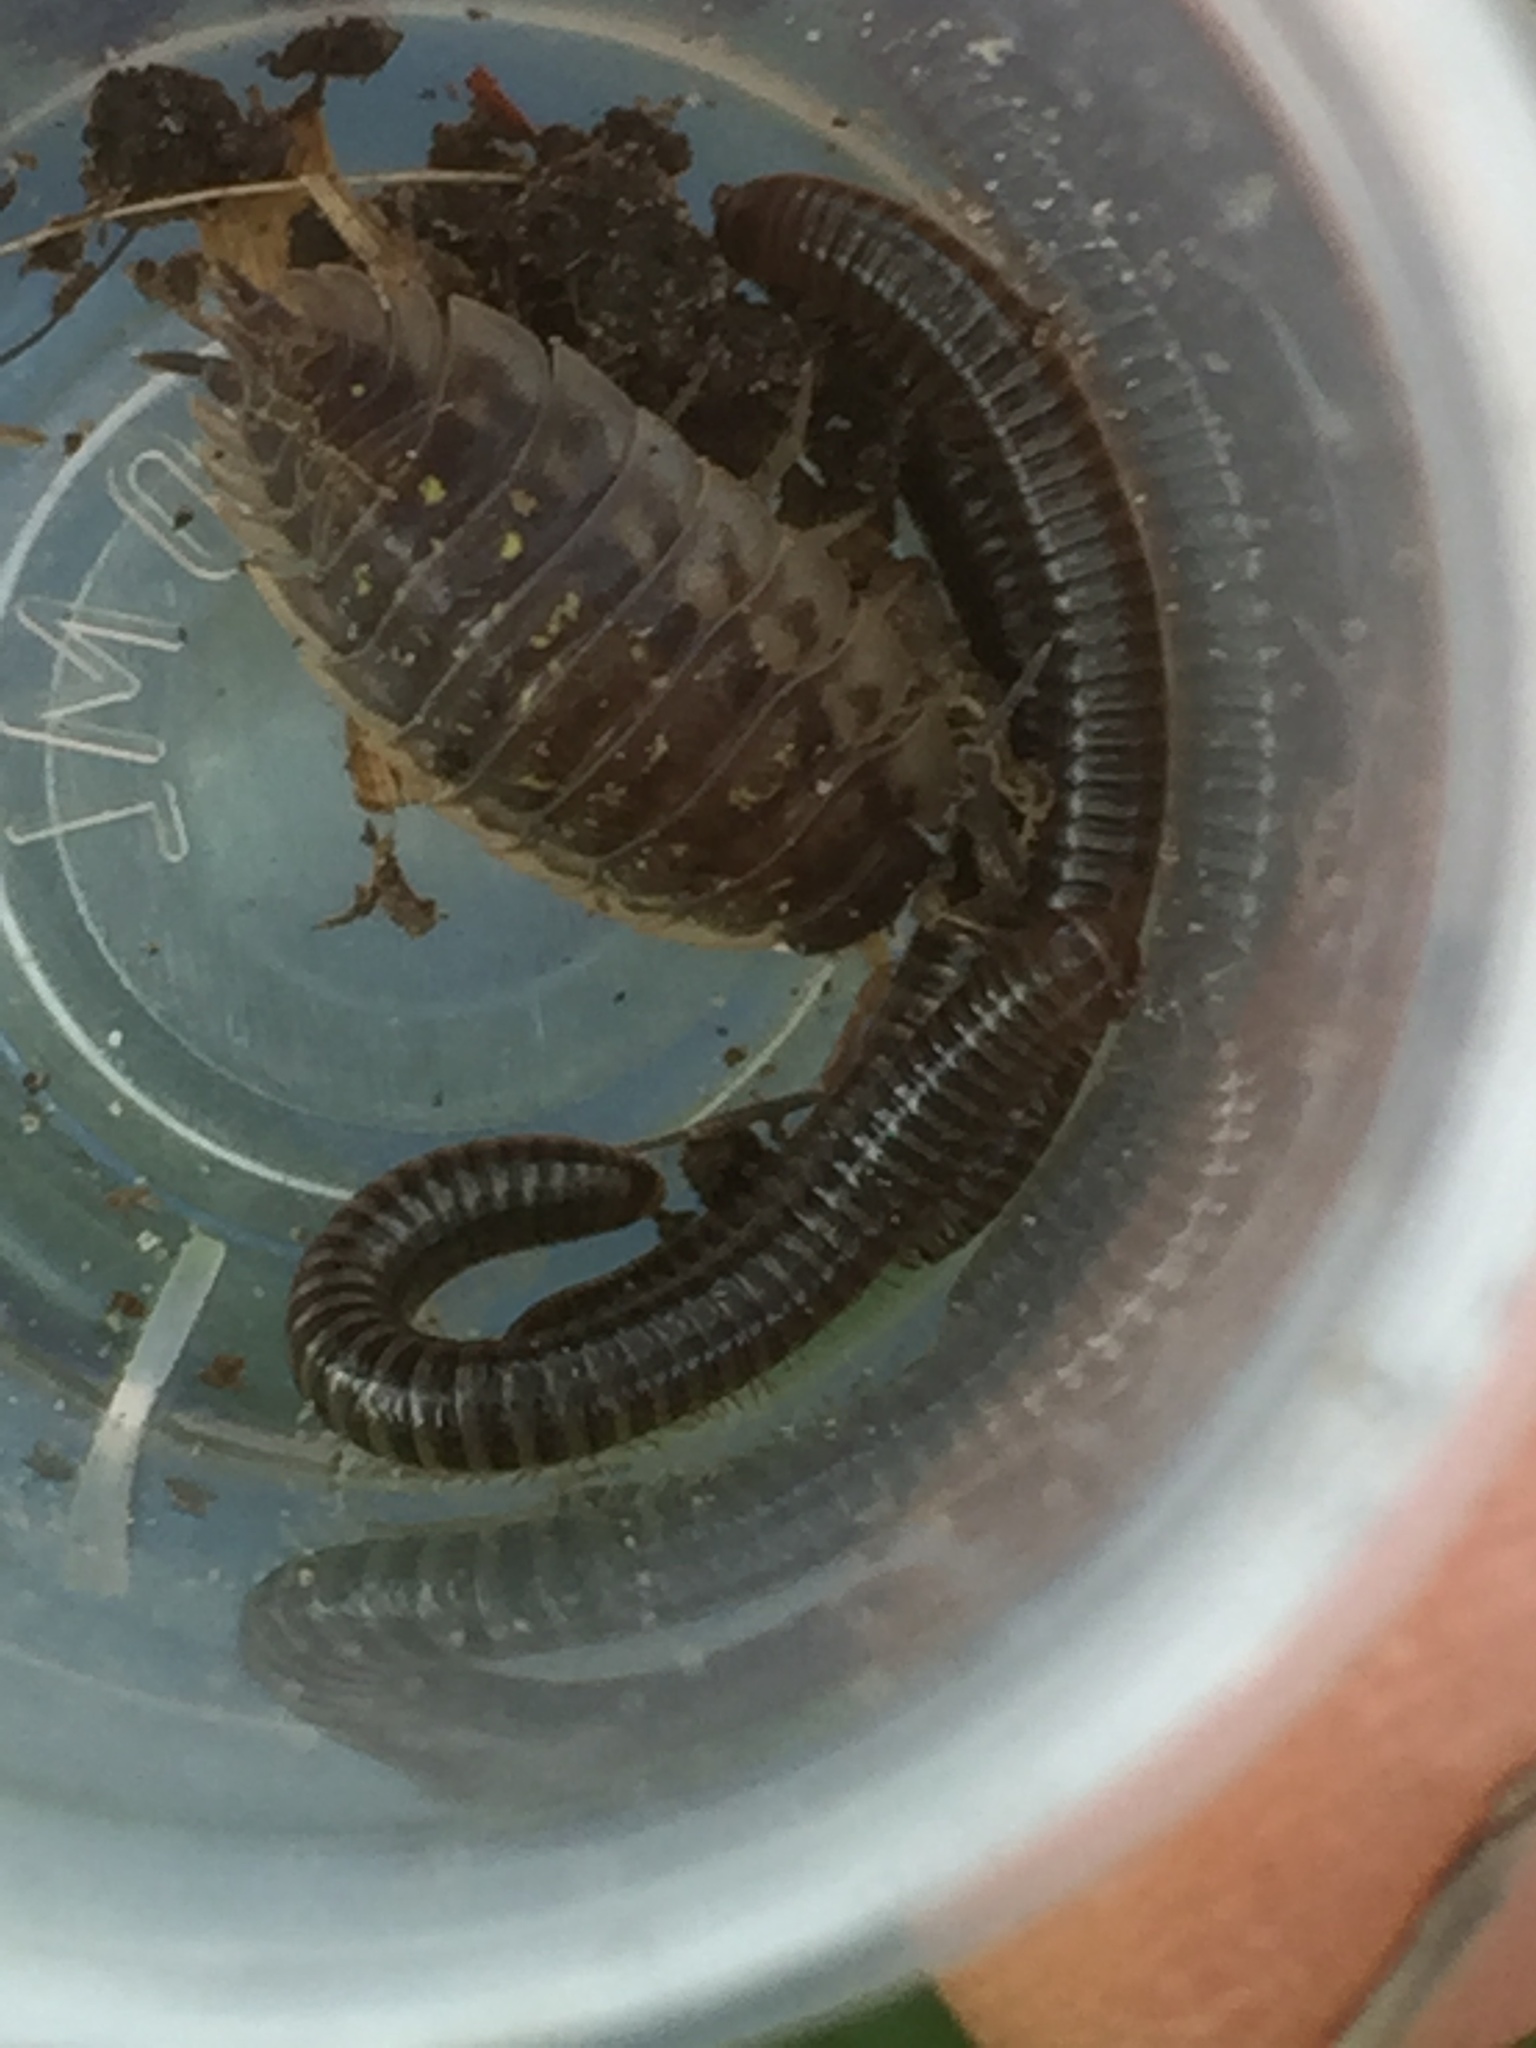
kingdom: Animalia
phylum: Arthropoda
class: Diplopoda
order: Julida
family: Julidae
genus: Cylindroiulus
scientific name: Cylindroiulus caeruleocinctus
